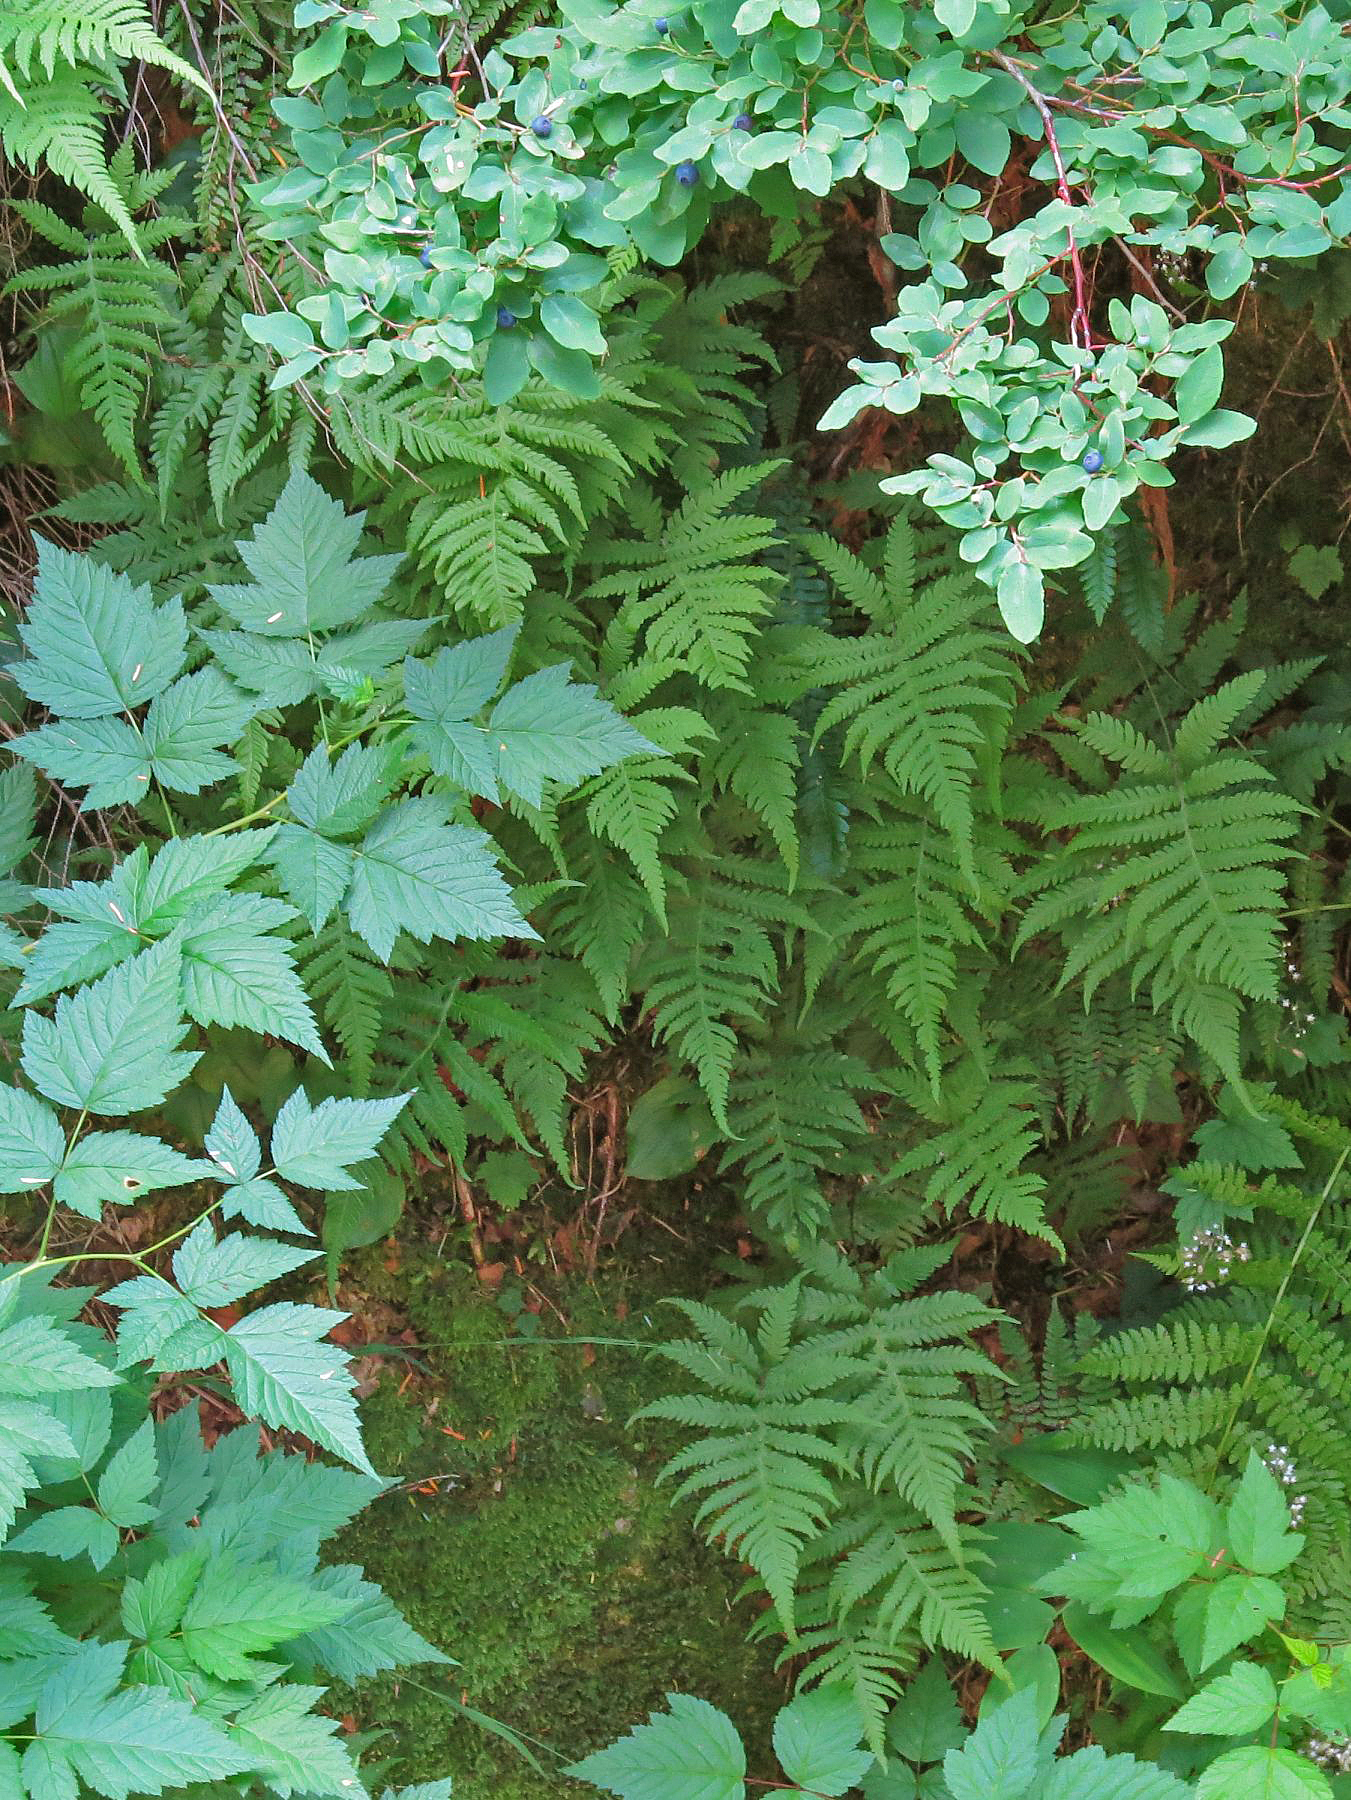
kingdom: Plantae
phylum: Tracheophyta
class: Polypodiopsida
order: Polypodiales
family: Thelypteridaceae
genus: Phegopteris
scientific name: Phegopteris connectilis
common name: Beech fern
